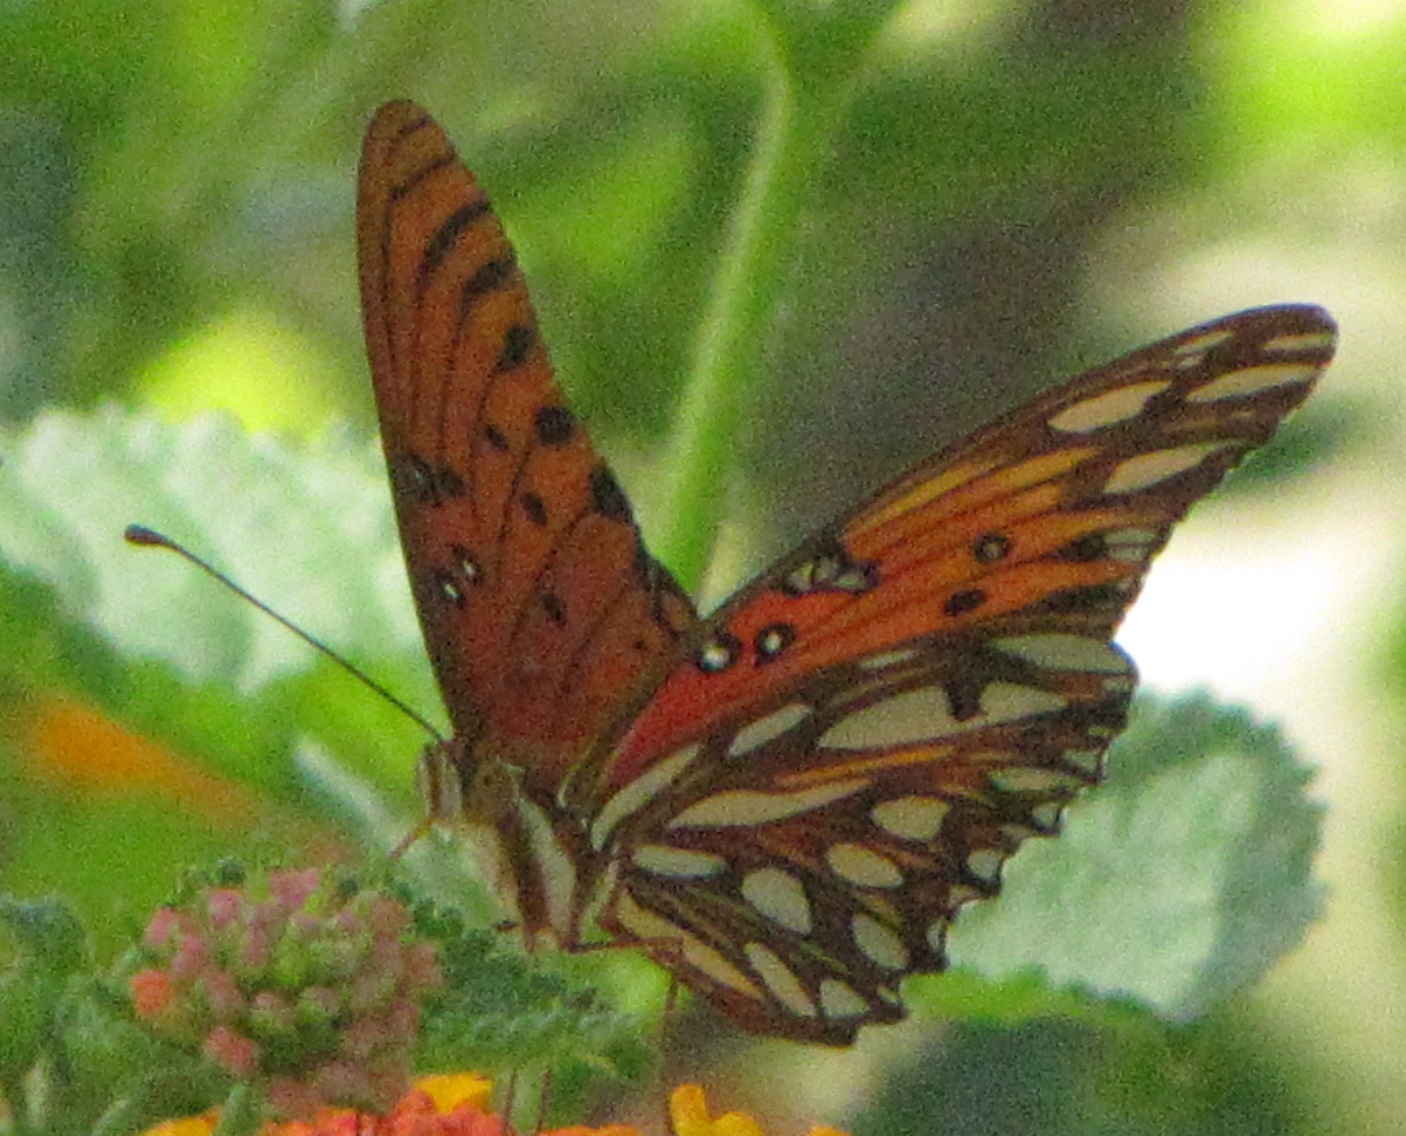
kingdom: Animalia
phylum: Arthropoda
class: Insecta
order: Lepidoptera
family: Nymphalidae
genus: Dione
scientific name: Dione vanillae
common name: Gulf fritillary
